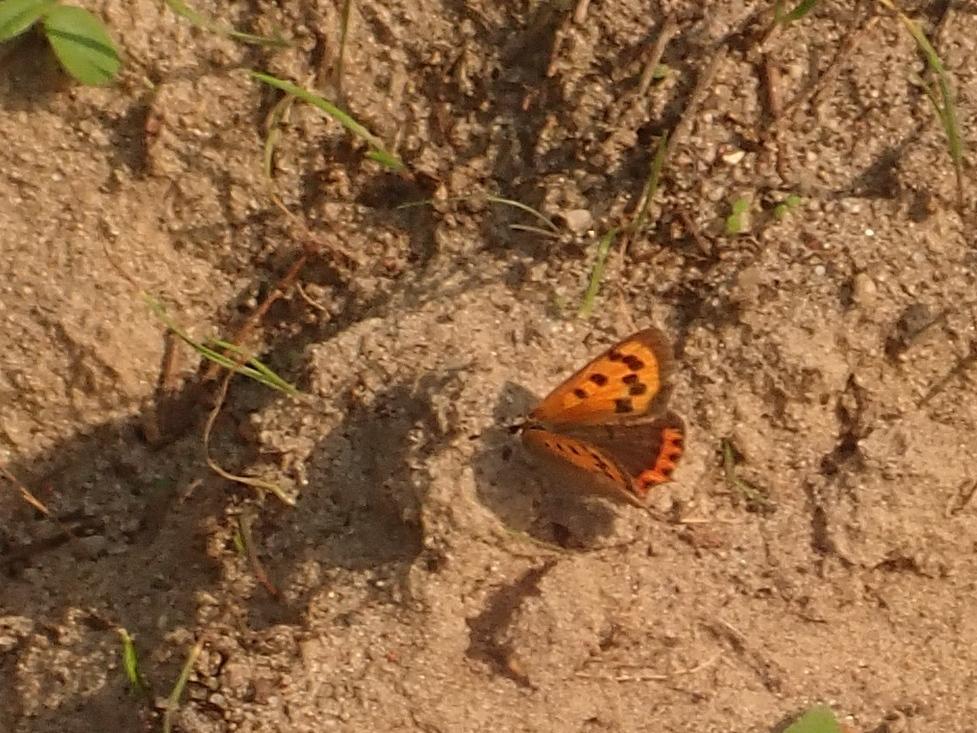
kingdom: Animalia
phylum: Arthropoda
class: Insecta
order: Lepidoptera
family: Lycaenidae
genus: Lycaena
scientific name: Lycaena phlaeas
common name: Small copper
